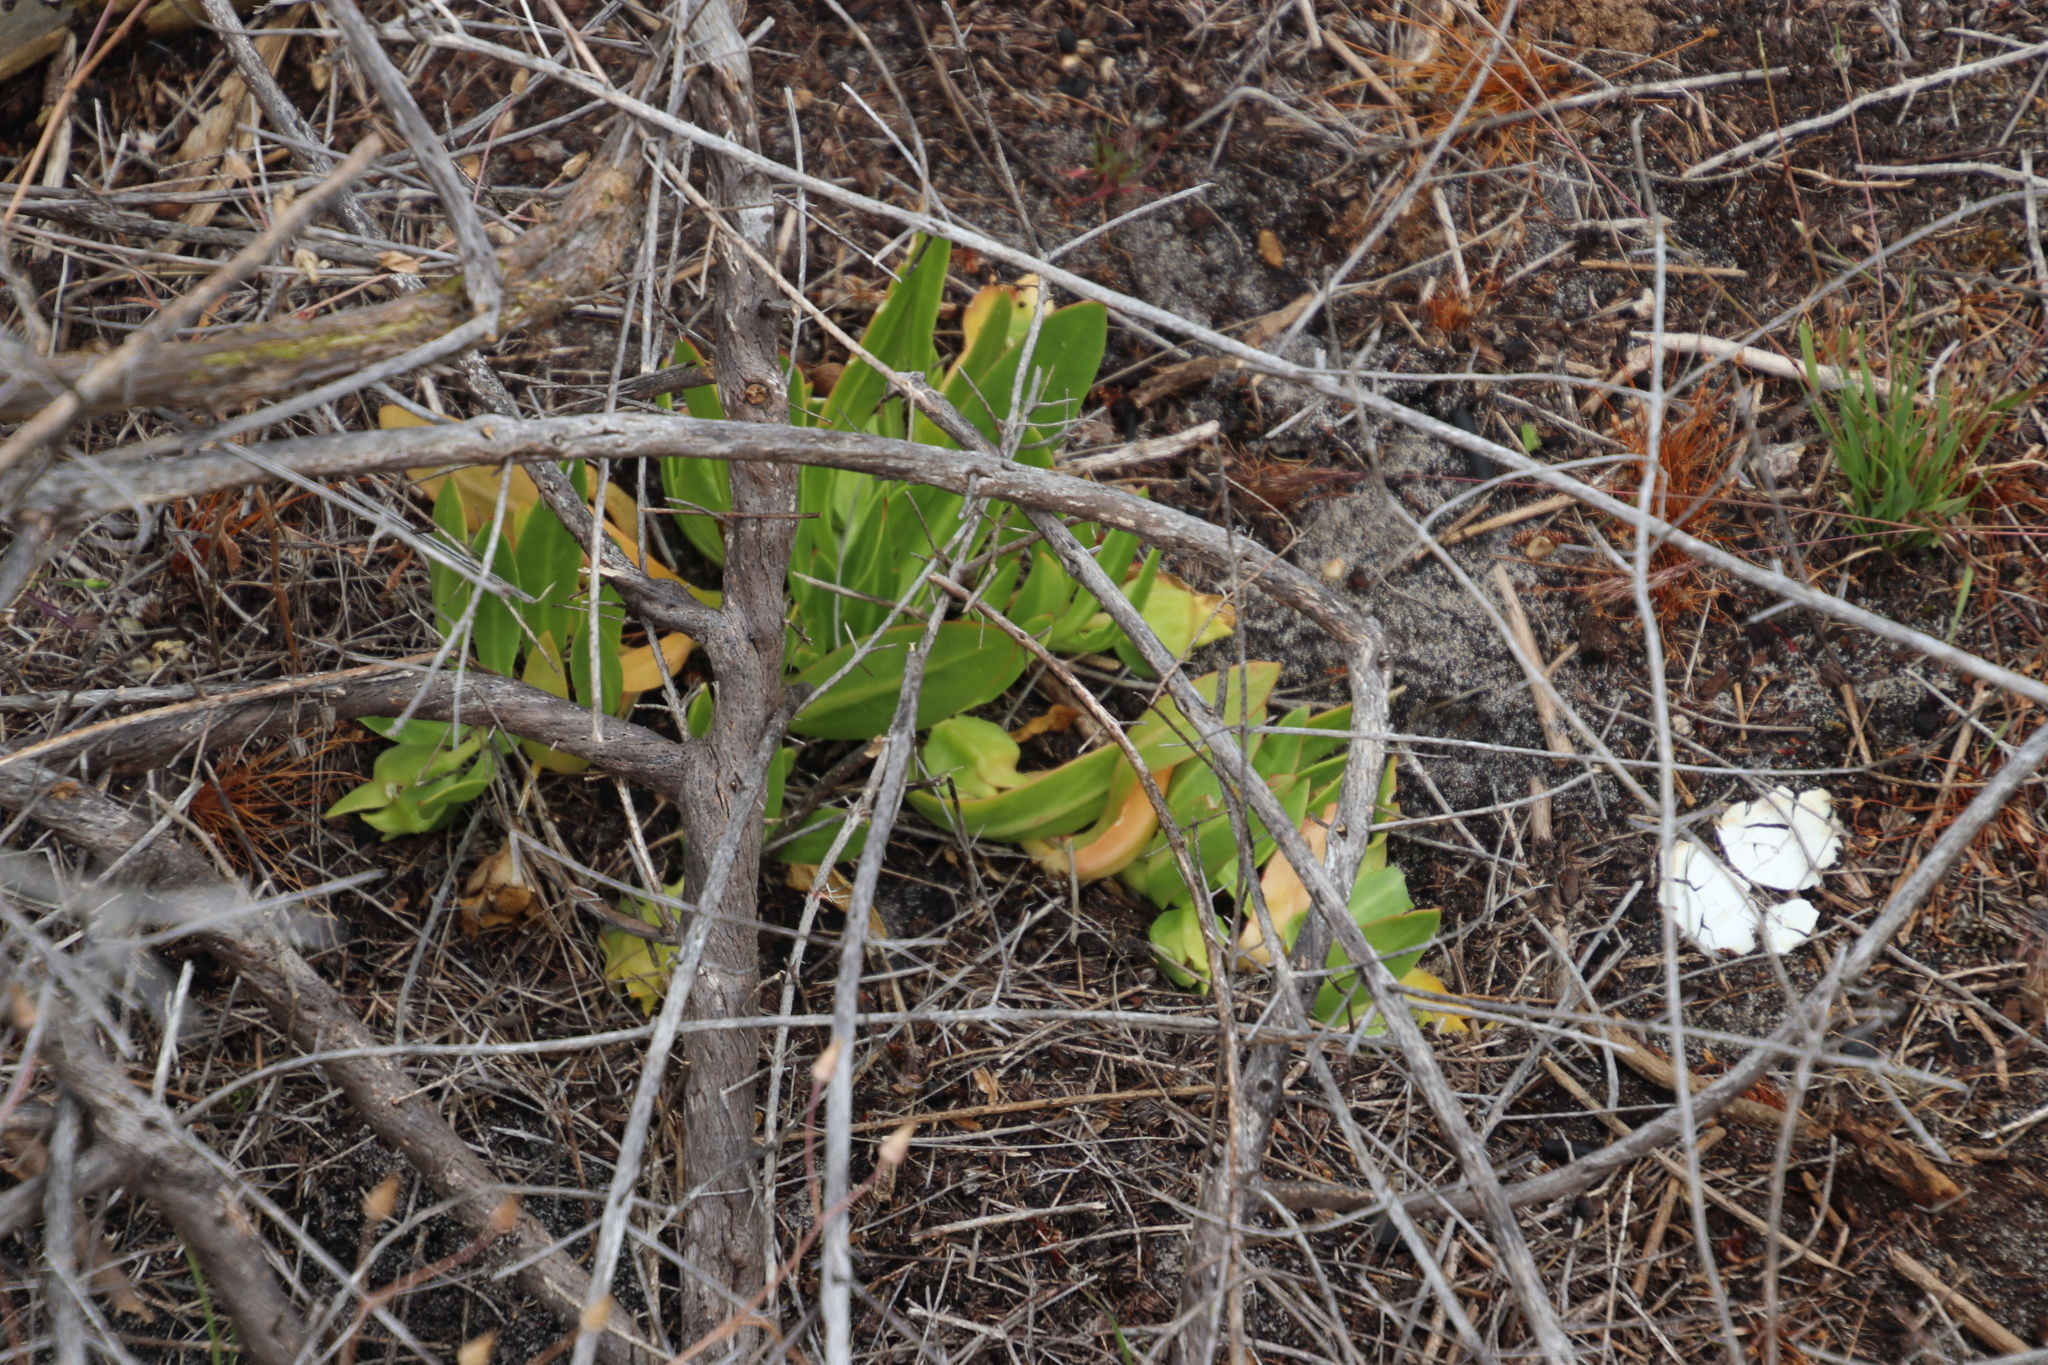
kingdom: Plantae
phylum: Tracheophyta
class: Magnoliopsida
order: Caryophyllales
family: Aizoaceae
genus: Skiatophytum
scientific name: Skiatophytum tripolium
